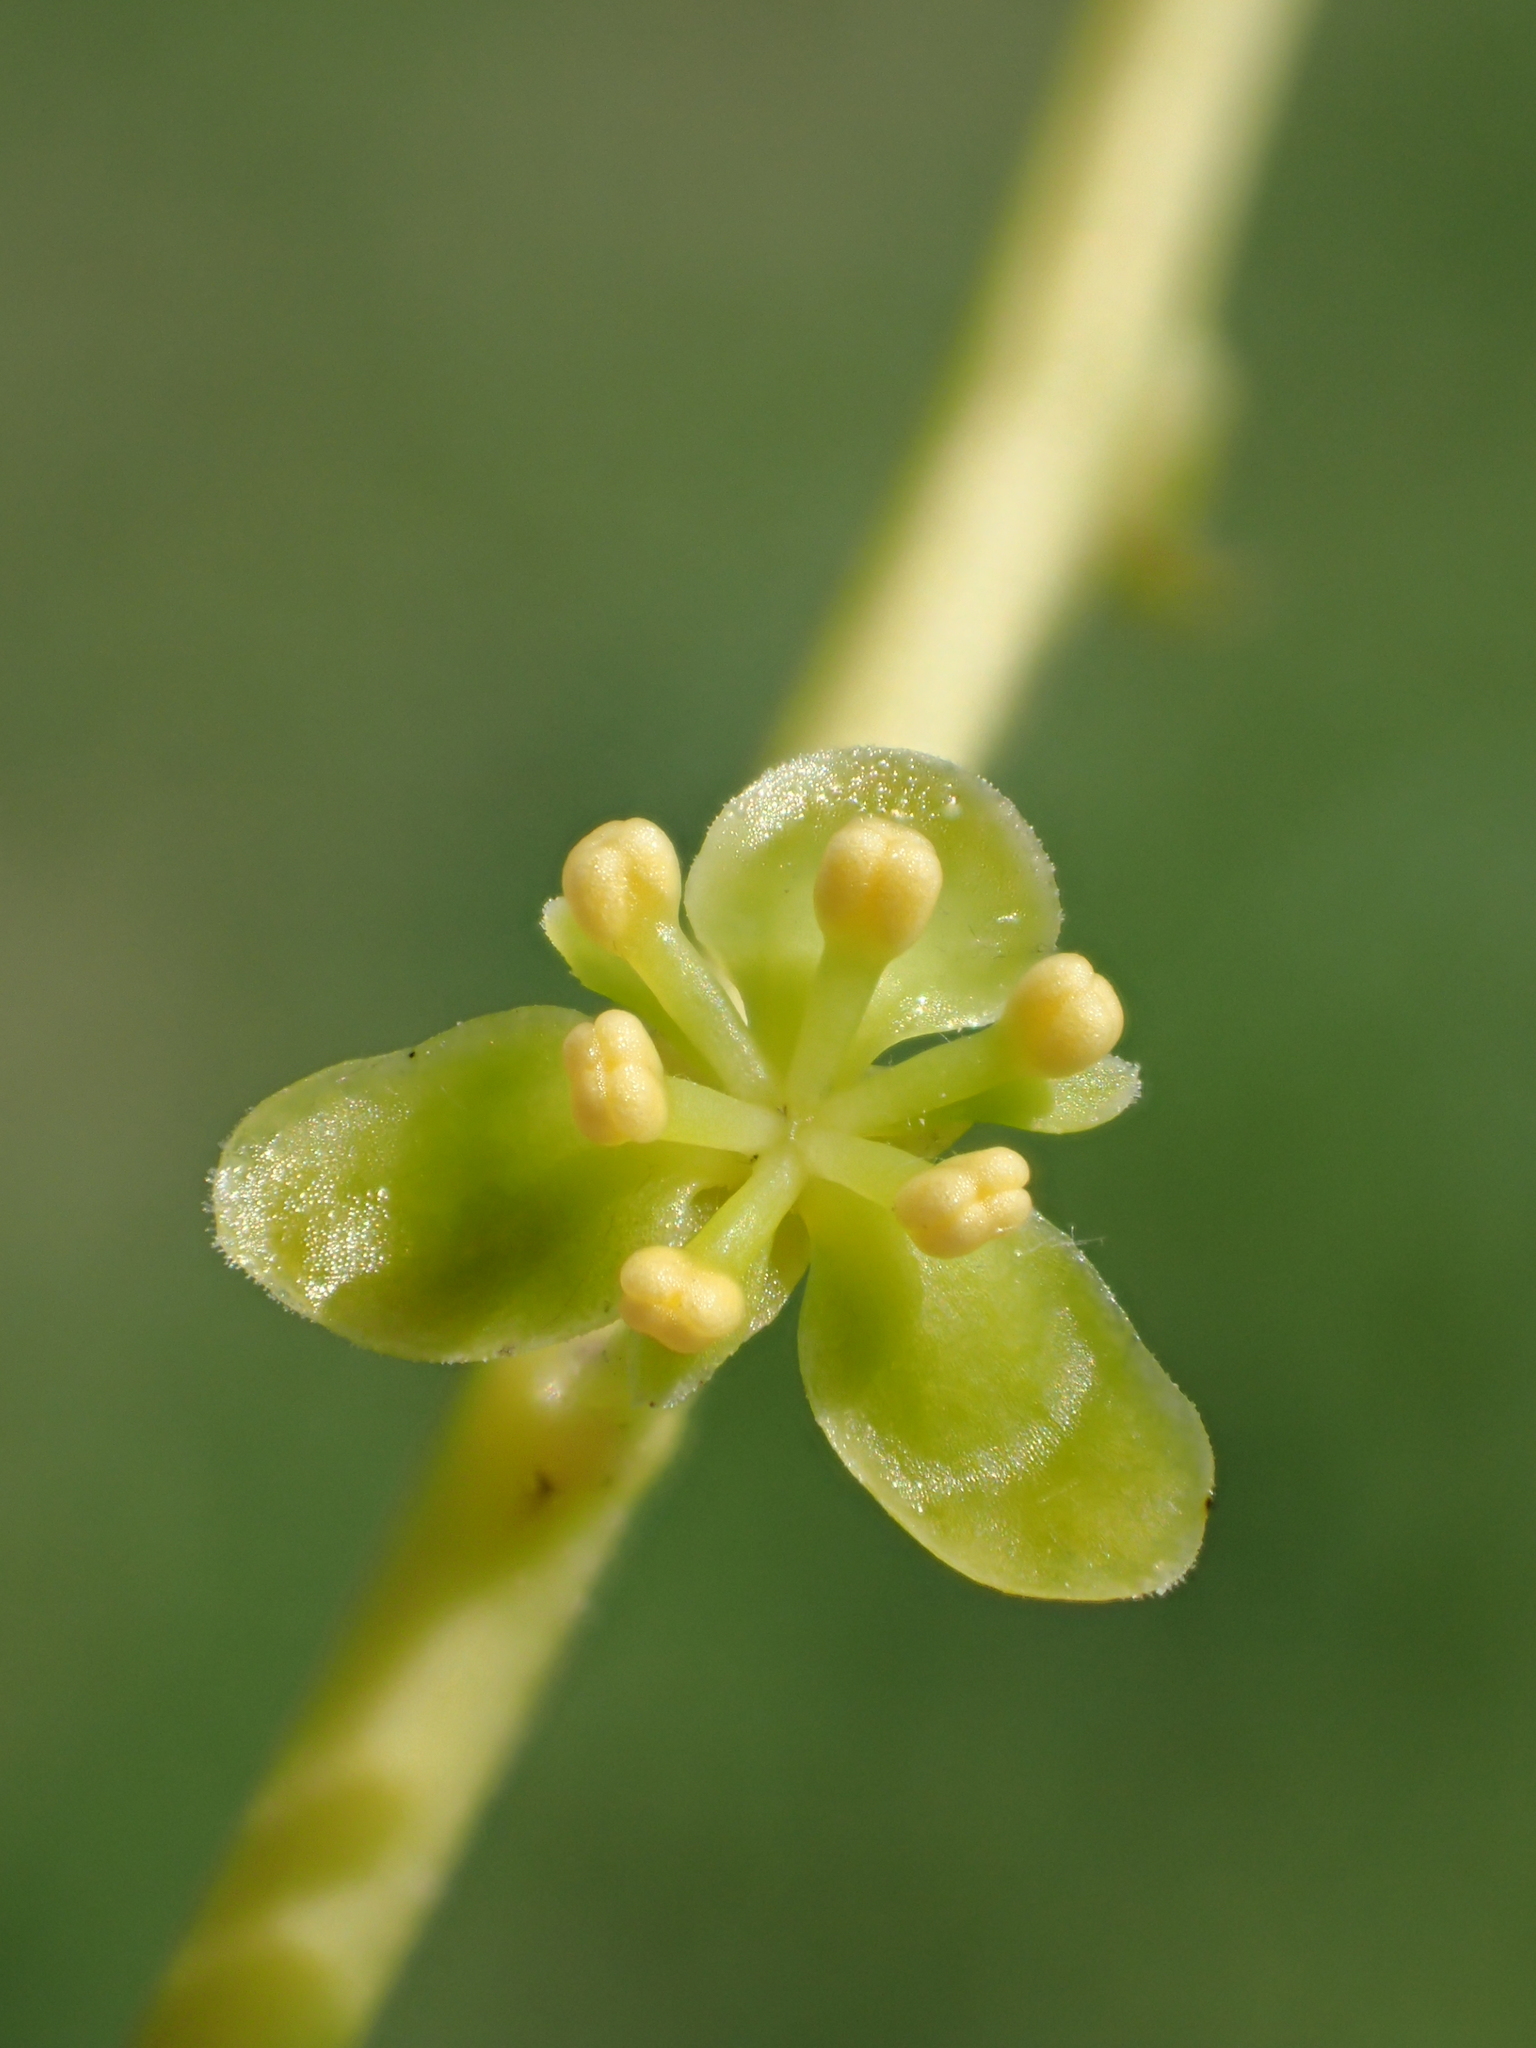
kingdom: Plantae
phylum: Tracheophyta
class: Magnoliopsida
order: Ranunculales
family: Menispermaceae
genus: Tinospora
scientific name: Tinospora crispa
